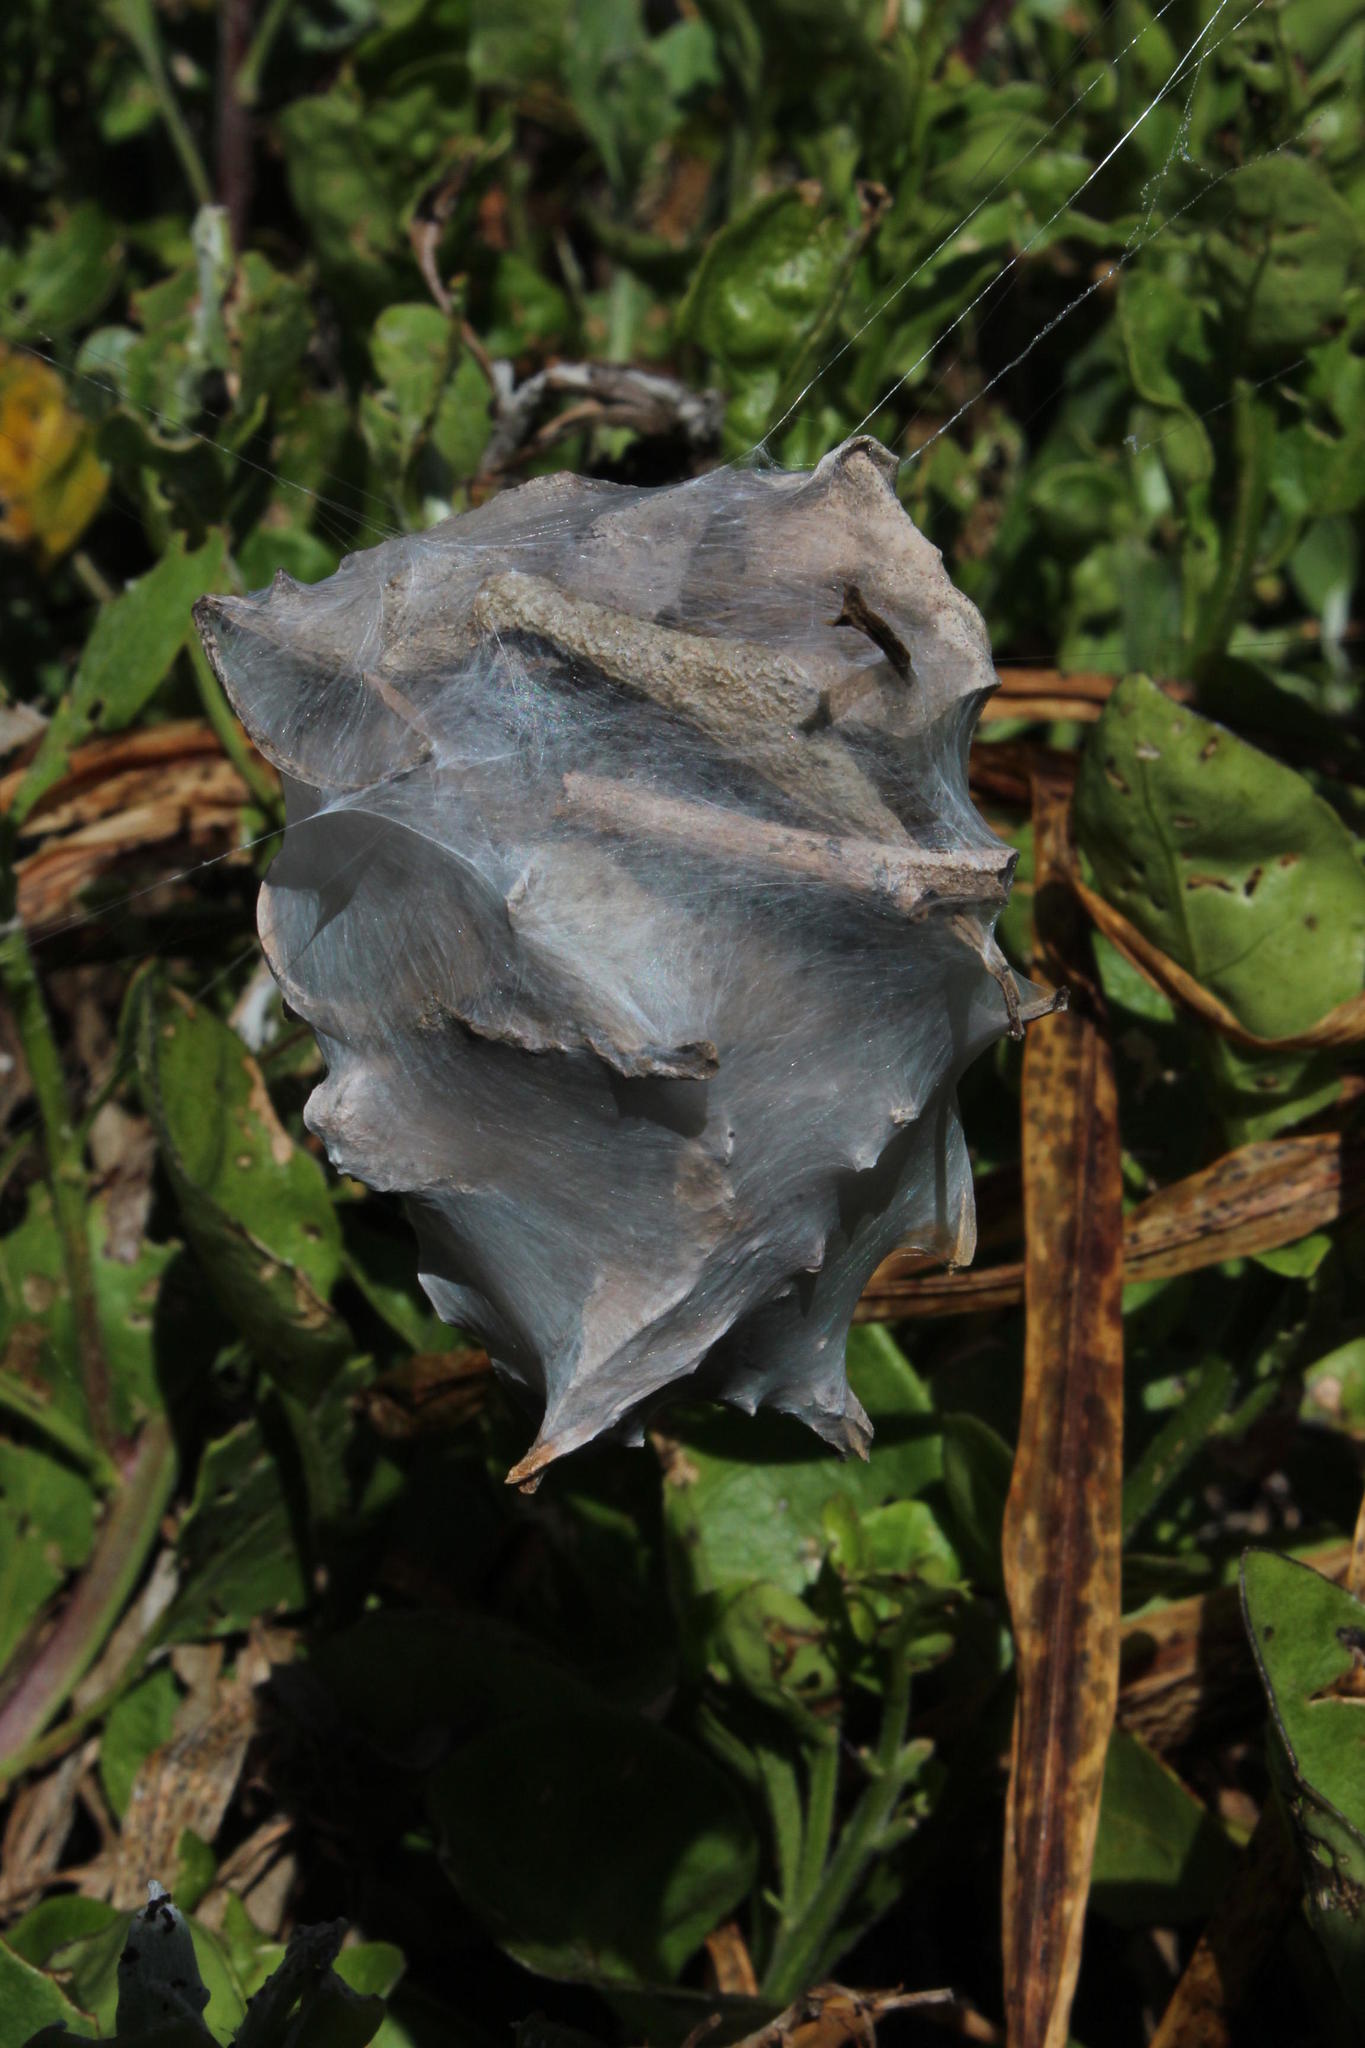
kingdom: Animalia
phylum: Arthropoda
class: Arachnida
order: Araneae
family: Sparassidae
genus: Palystes
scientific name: Palystes superciliosus
